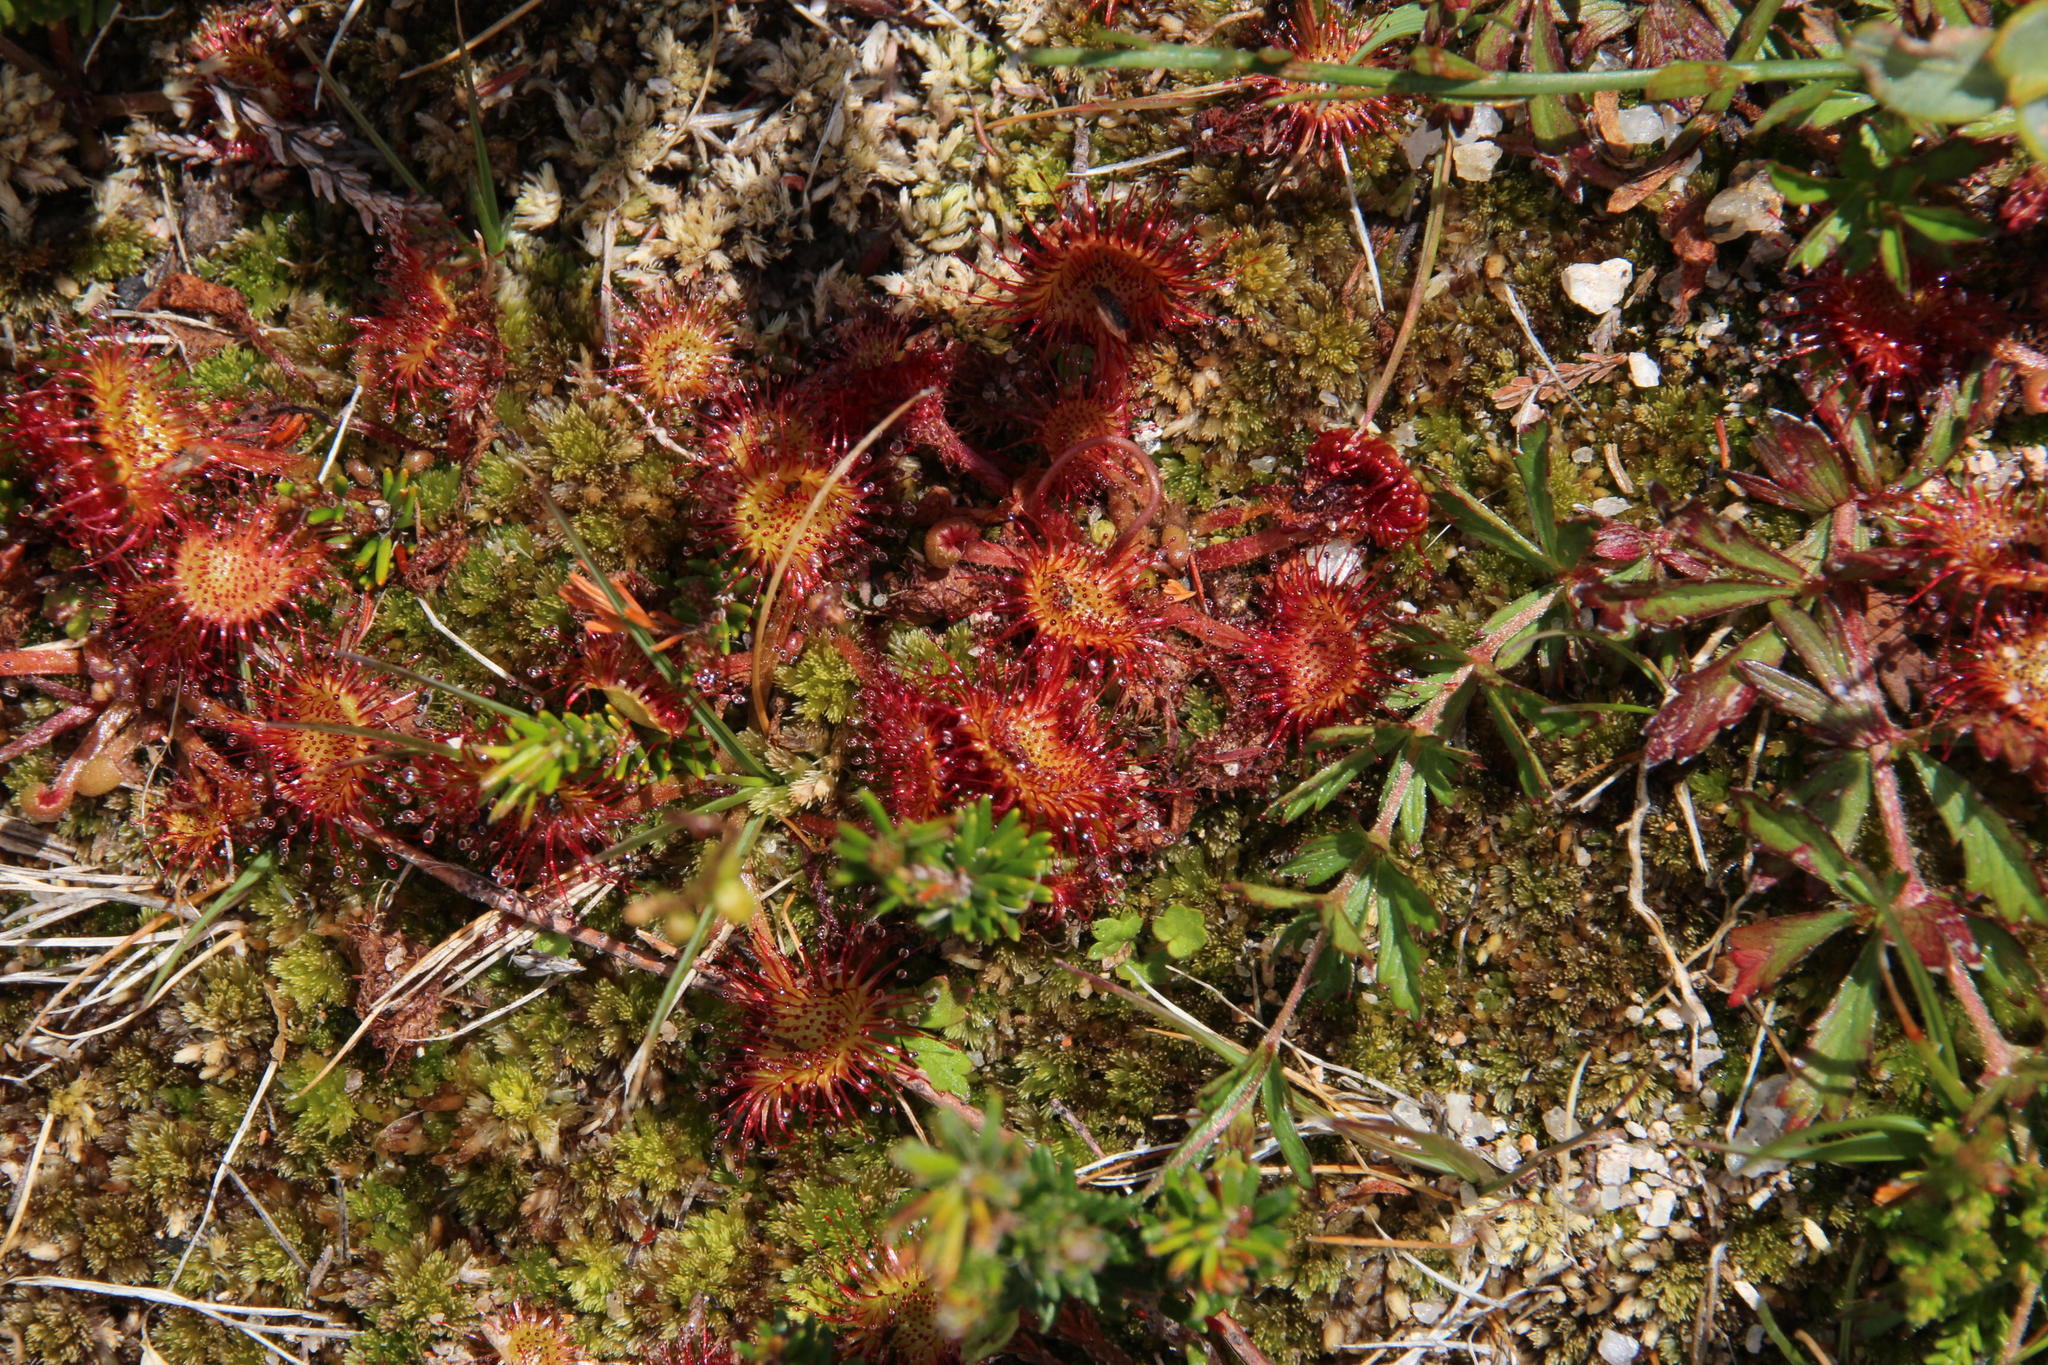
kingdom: Plantae
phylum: Tracheophyta
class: Magnoliopsida
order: Caryophyllales
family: Droseraceae
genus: Drosera
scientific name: Drosera rotundifolia
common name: Round-leaved sundew
